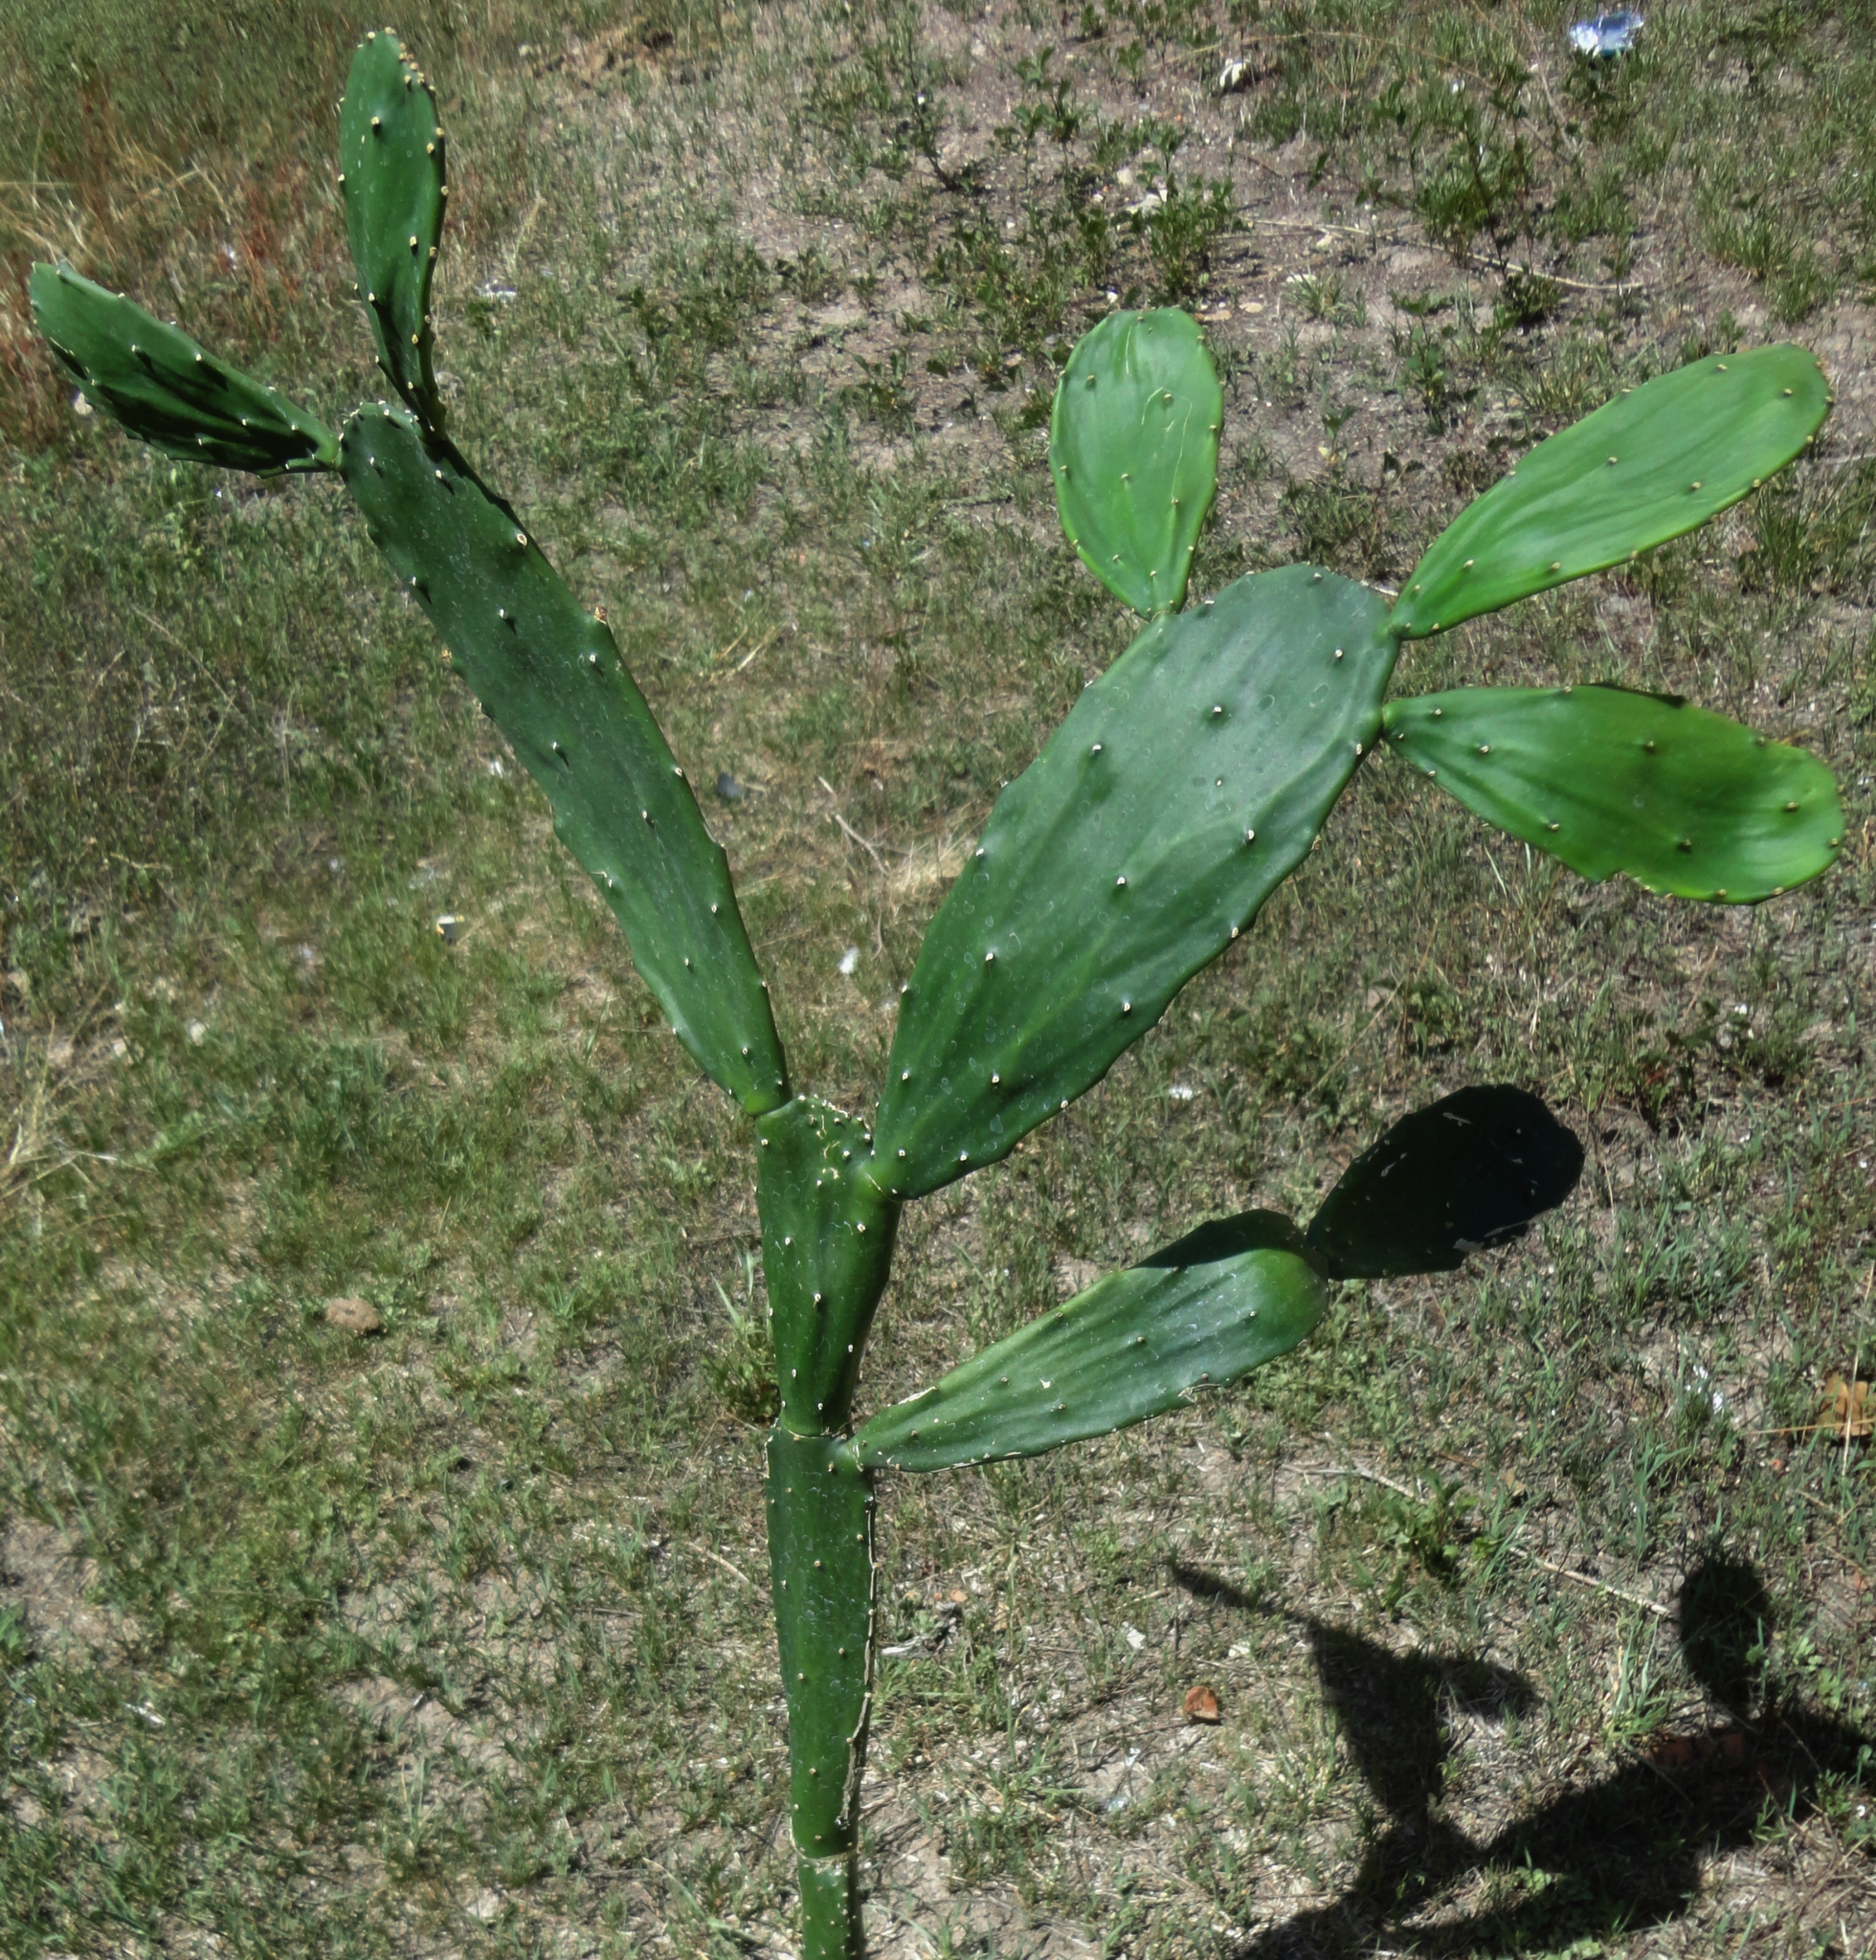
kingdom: Plantae
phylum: Tracheophyta
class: Magnoliopsida
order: Caryophyllales
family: Cactaceae
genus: Opuntia
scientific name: Opuntia cochenillifera
